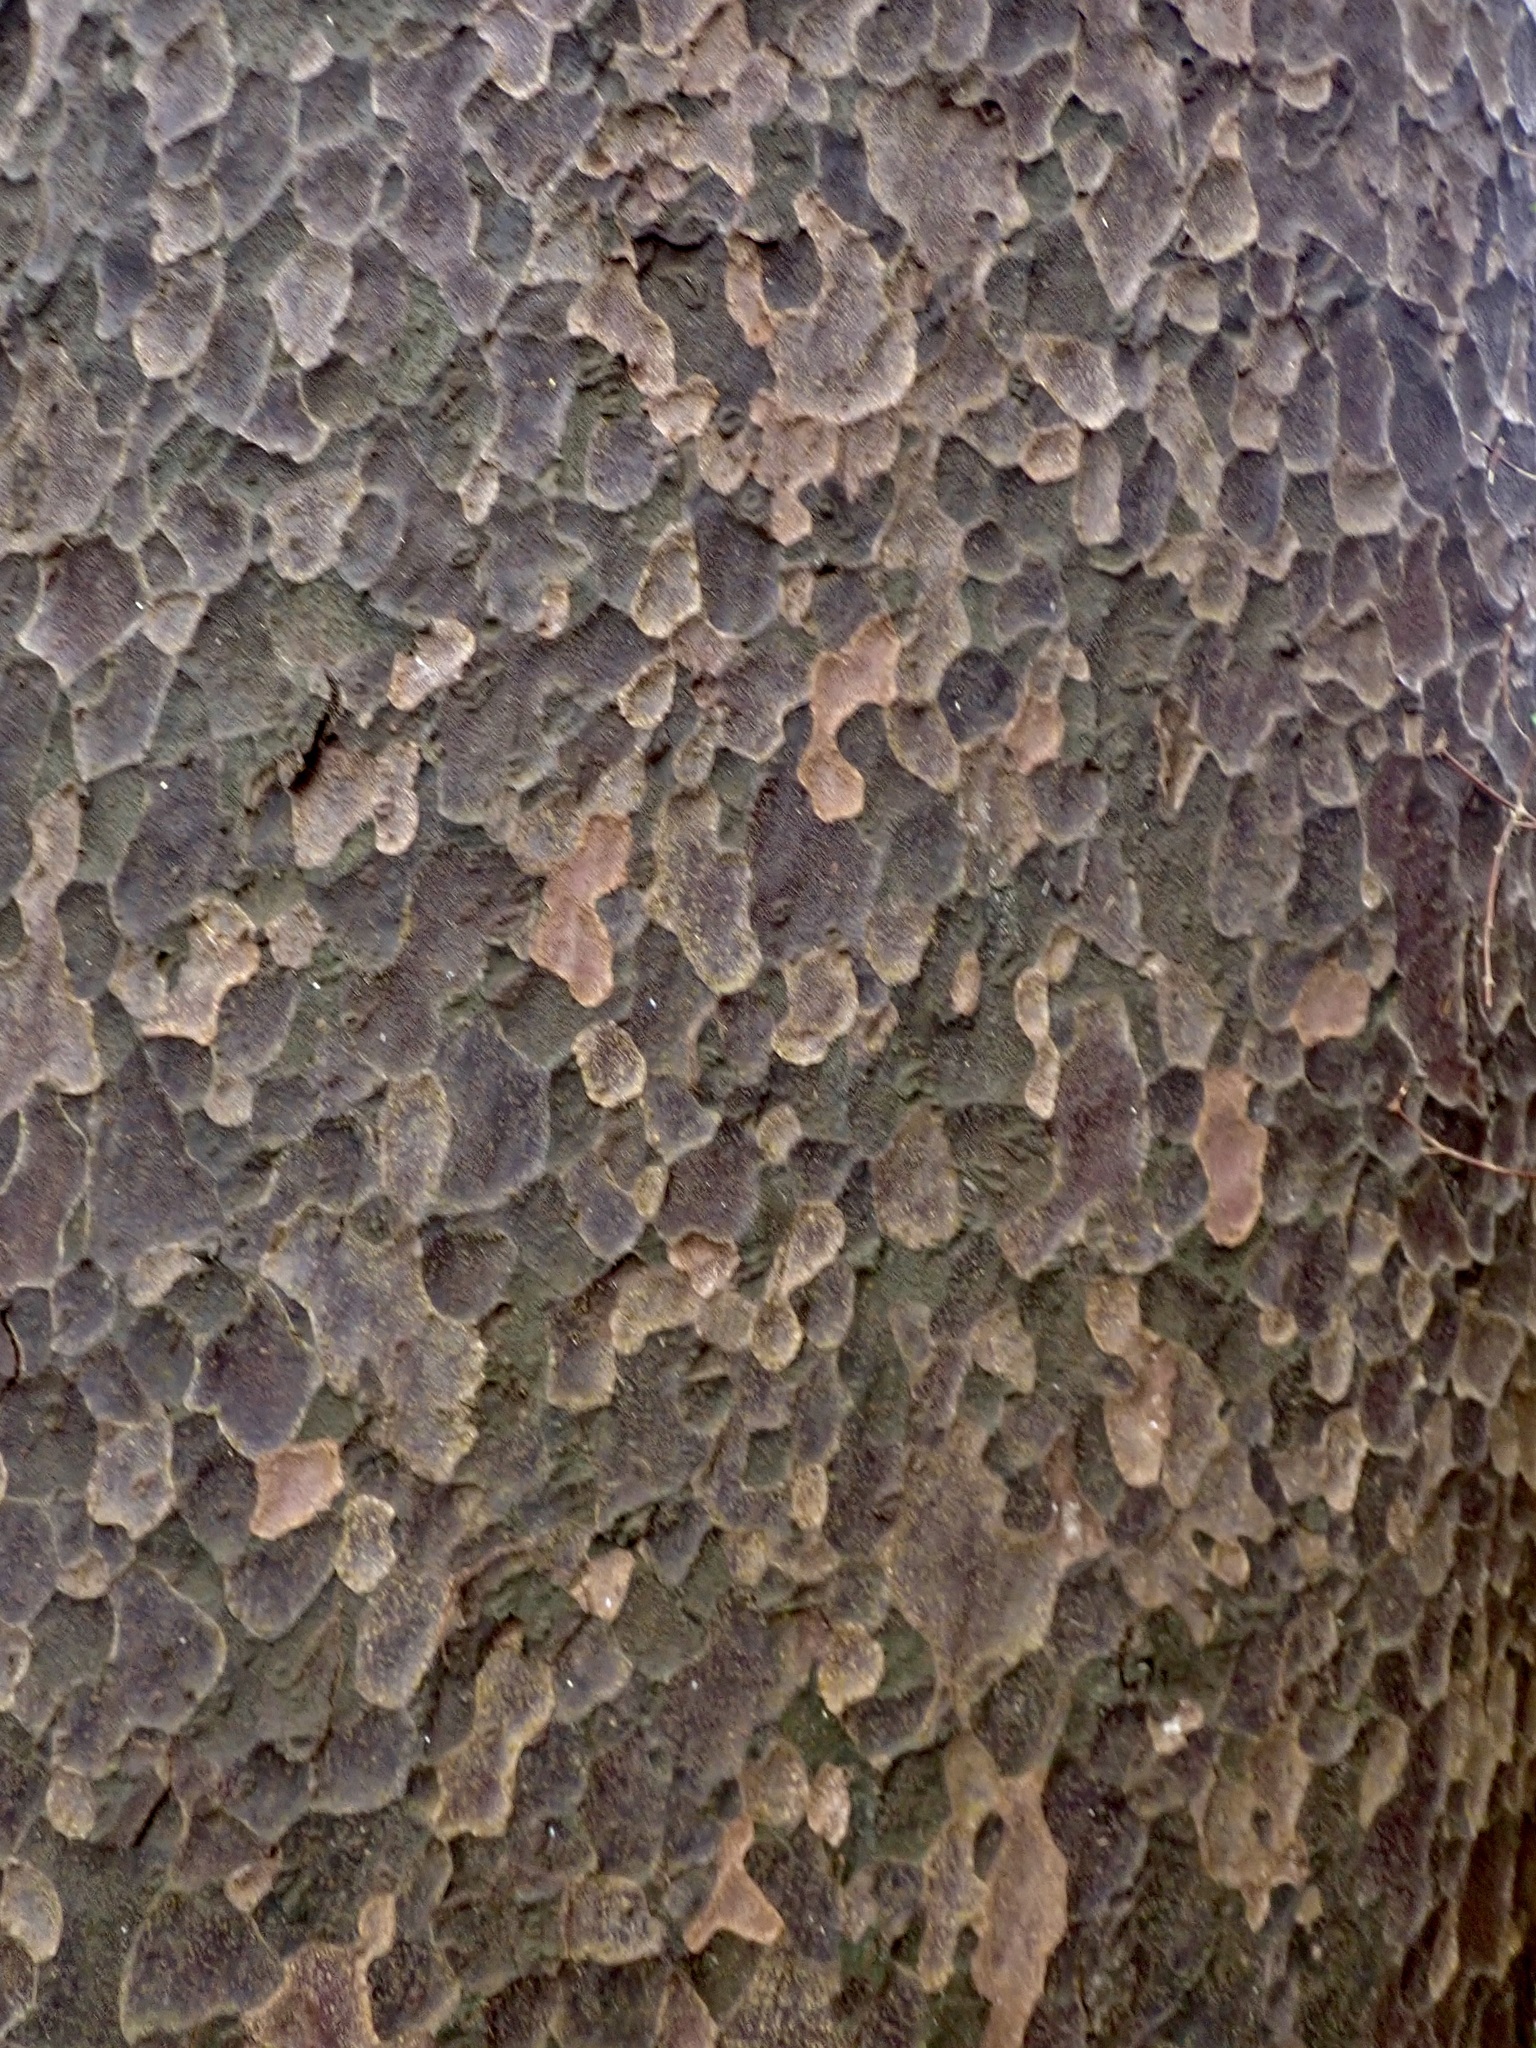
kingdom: Plantae
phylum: Tracheophyta
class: Pinopsida
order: Pinales
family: Podocarpaceae
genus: Prumnopitys
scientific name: Prumnopitys taxifolia
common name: Matai
